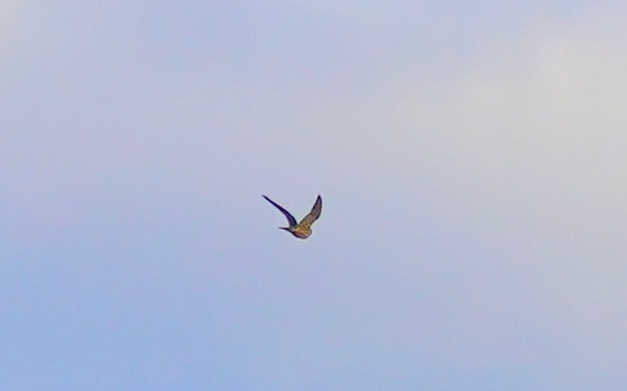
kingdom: Animalia
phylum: Chordata
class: Aves
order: Falconiformes
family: Falconidae
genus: Falco
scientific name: Falco sparverius
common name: American kestrel
